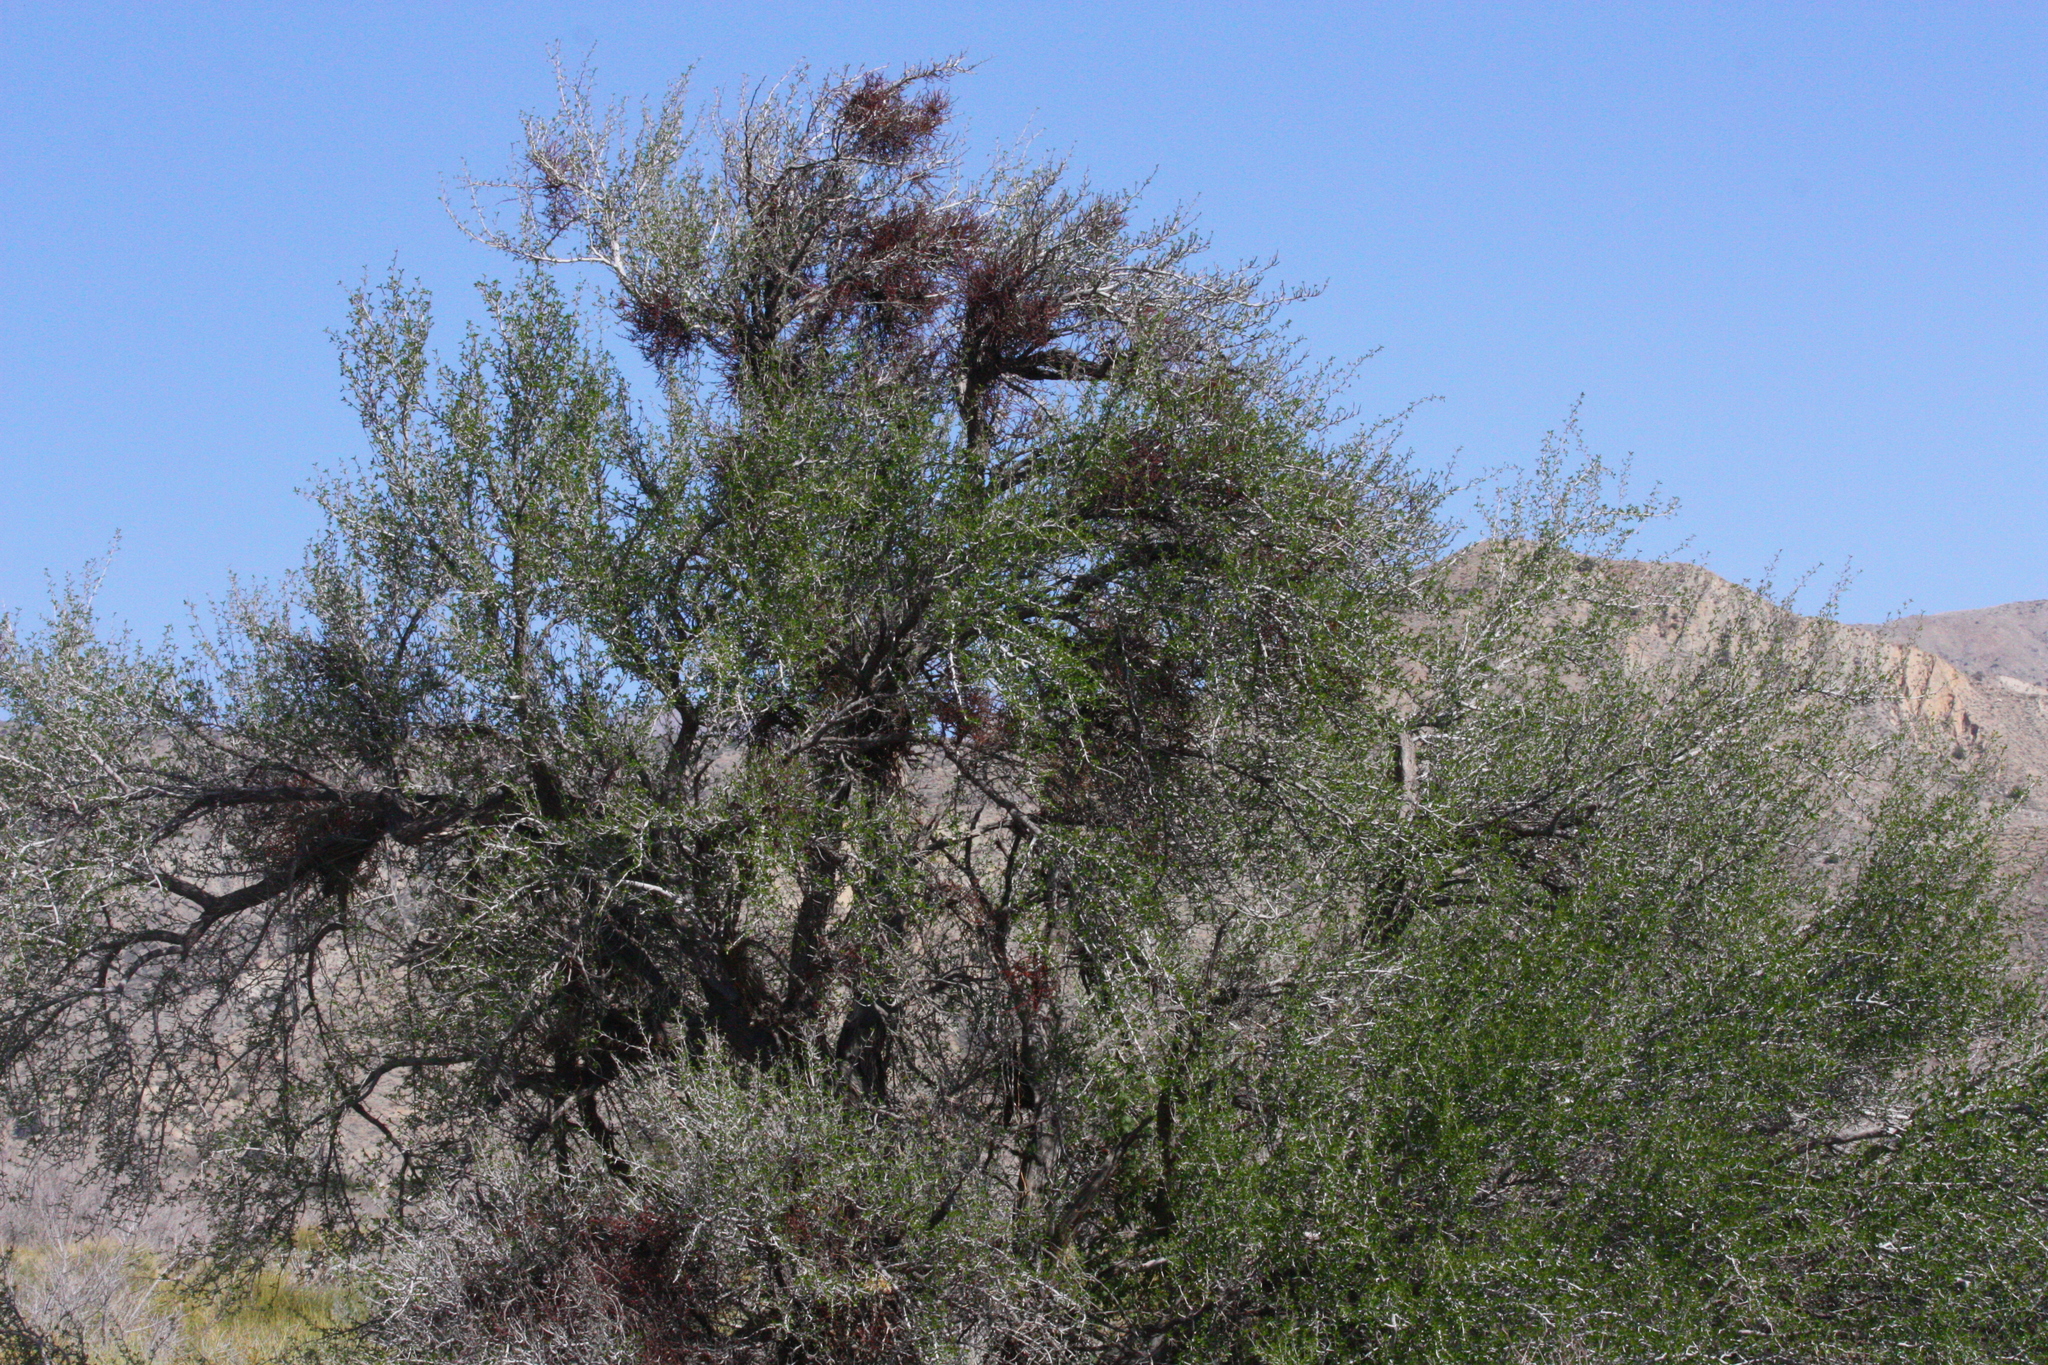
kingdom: Plantae
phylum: Tracheophyta
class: Magnoliopsida
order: Santalales
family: Viscaceae
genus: Phoradendron
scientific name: Phoradendron californicum
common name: Acacia mistletoe
